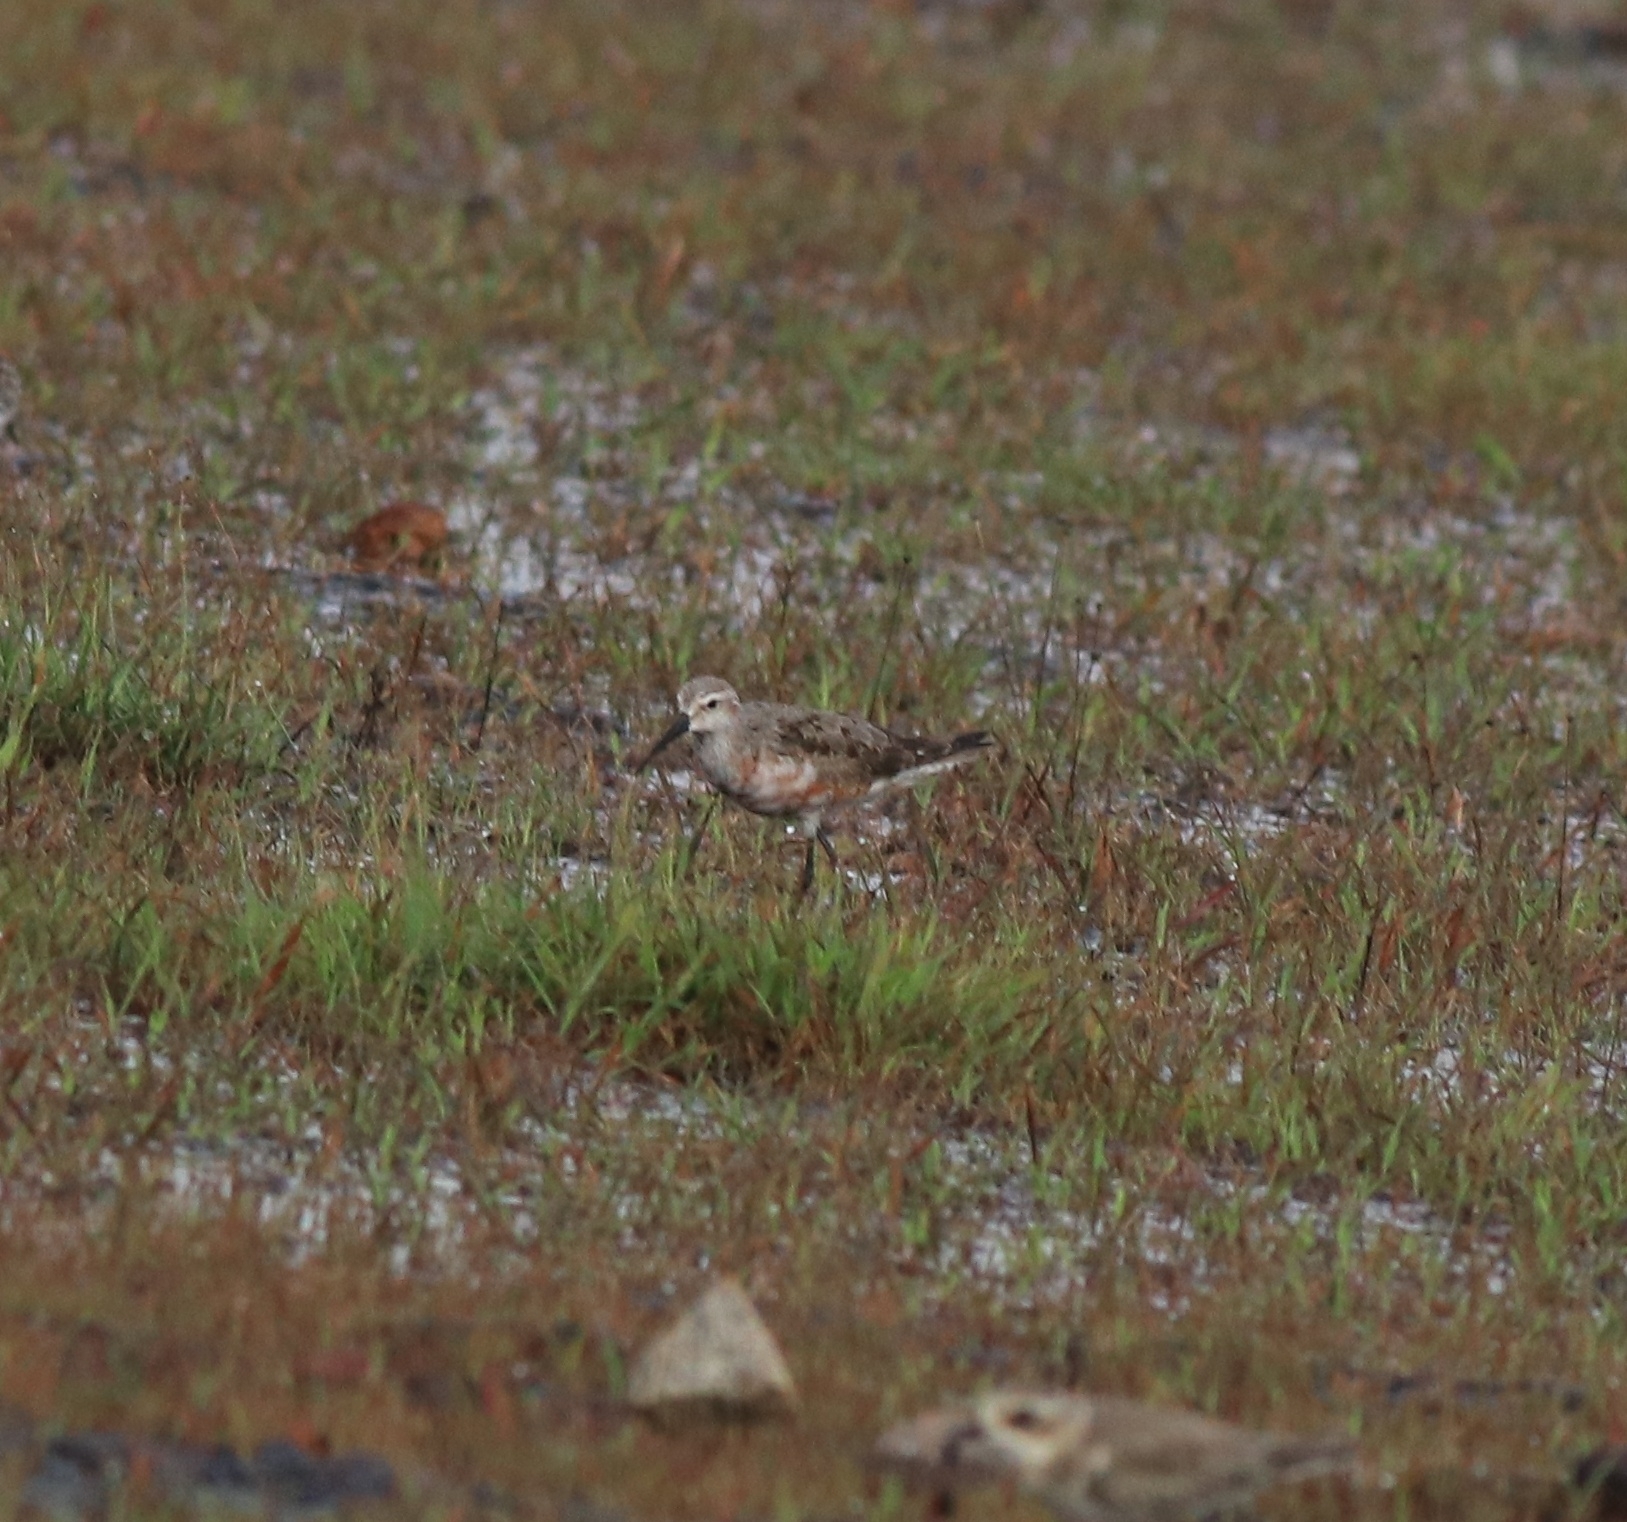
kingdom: Animalia
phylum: Chordata
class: Aves
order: Charadriiformes
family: Scolopacidae
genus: Calidris
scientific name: Calidris ferruginea
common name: Curlew sandpiper
